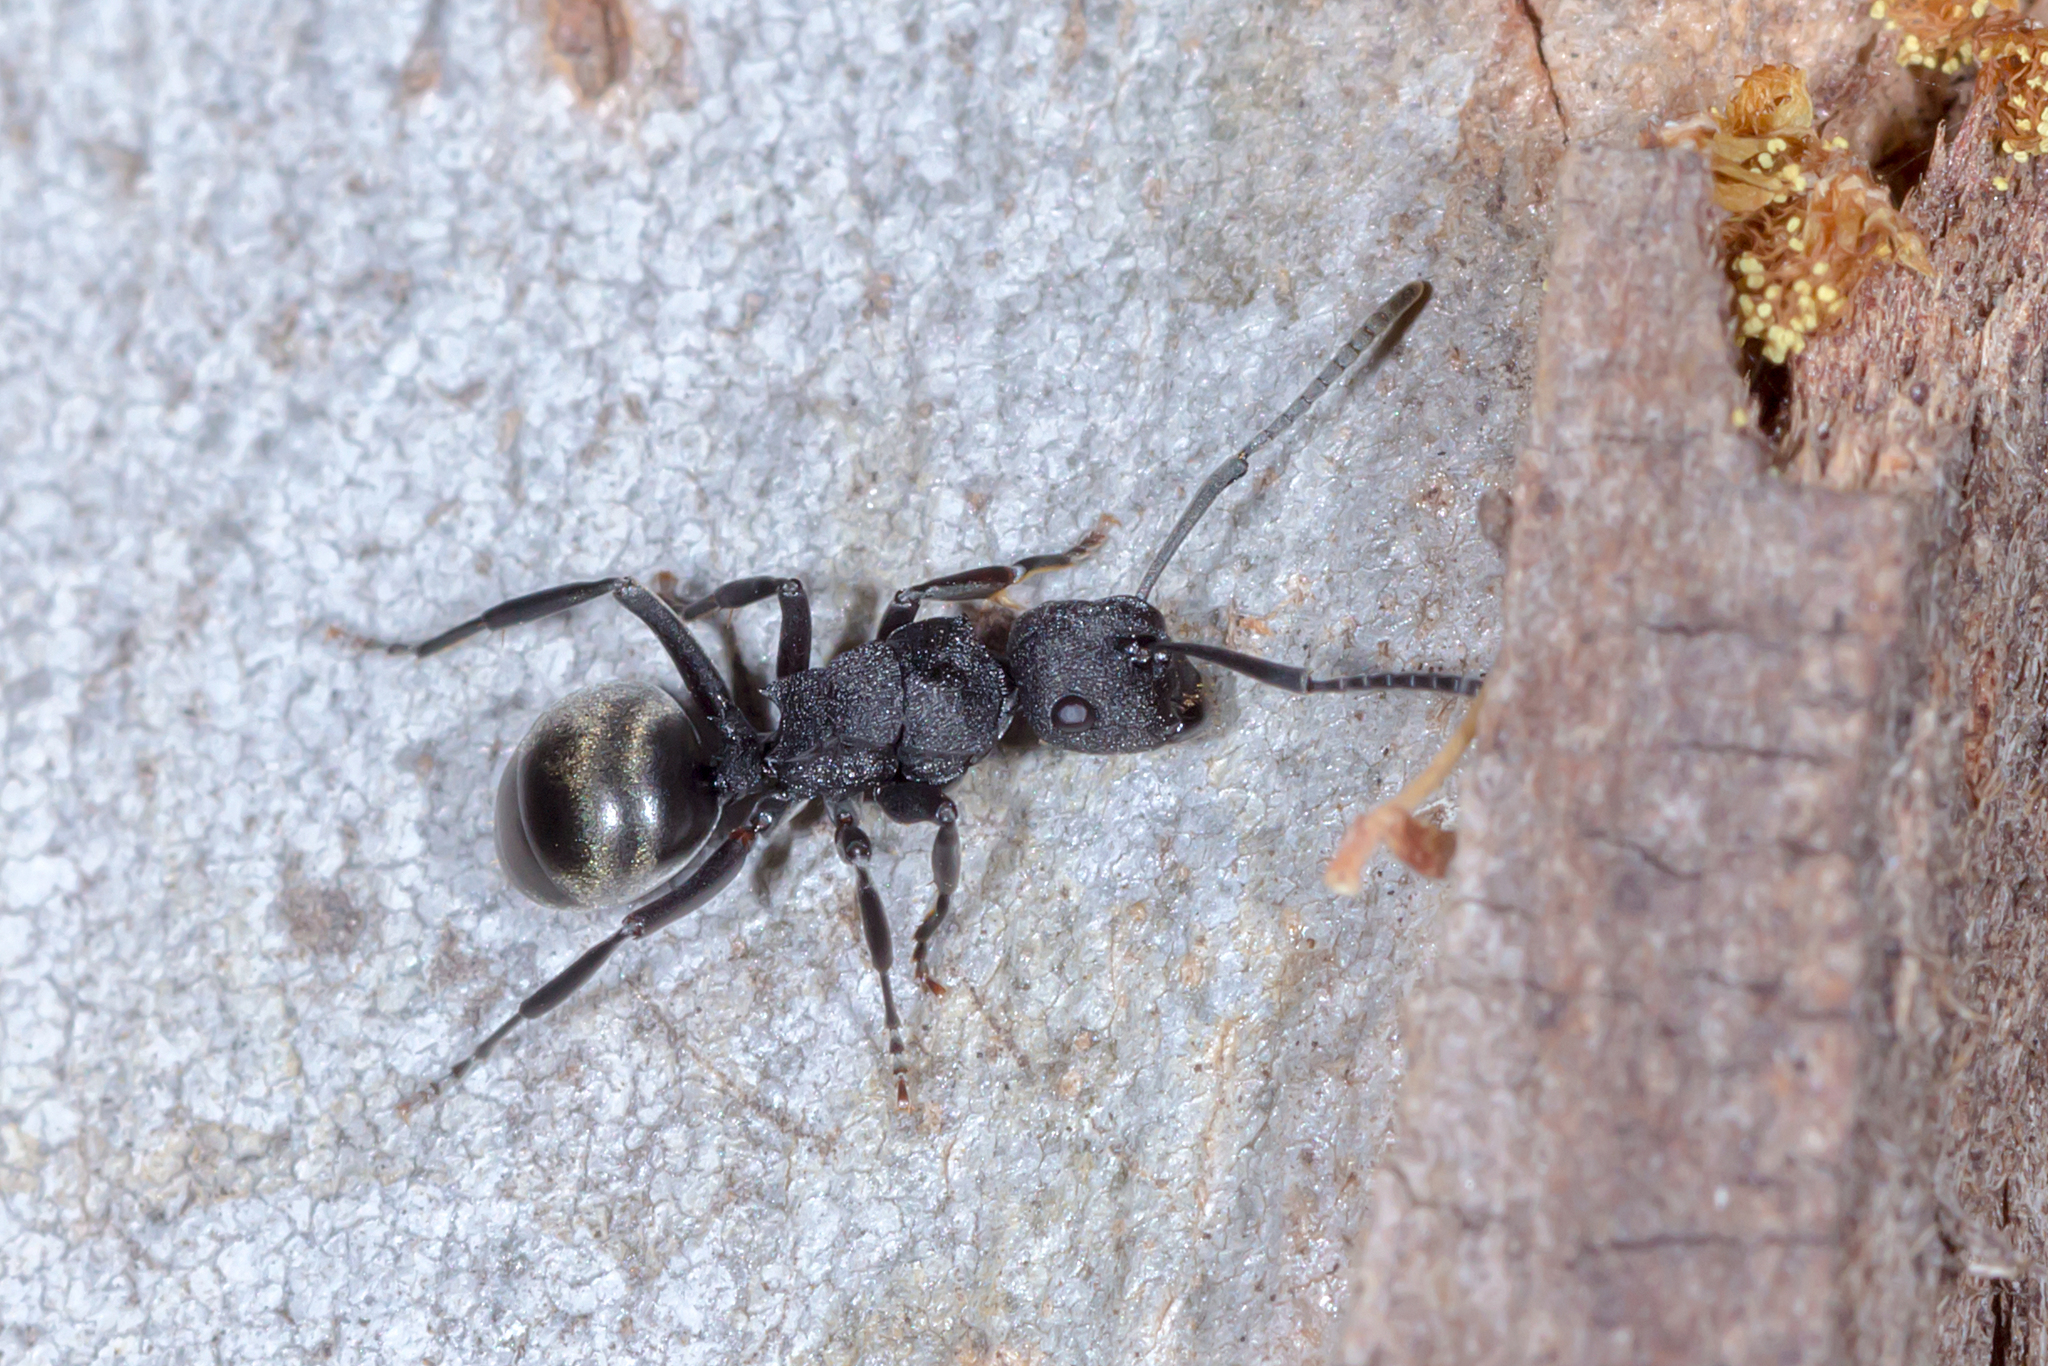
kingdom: Animalia
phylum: Arthropoda
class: Insecta
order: Hymenoptera
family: Formicidae
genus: Polyrhachis
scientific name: Polyrhachis phryne
